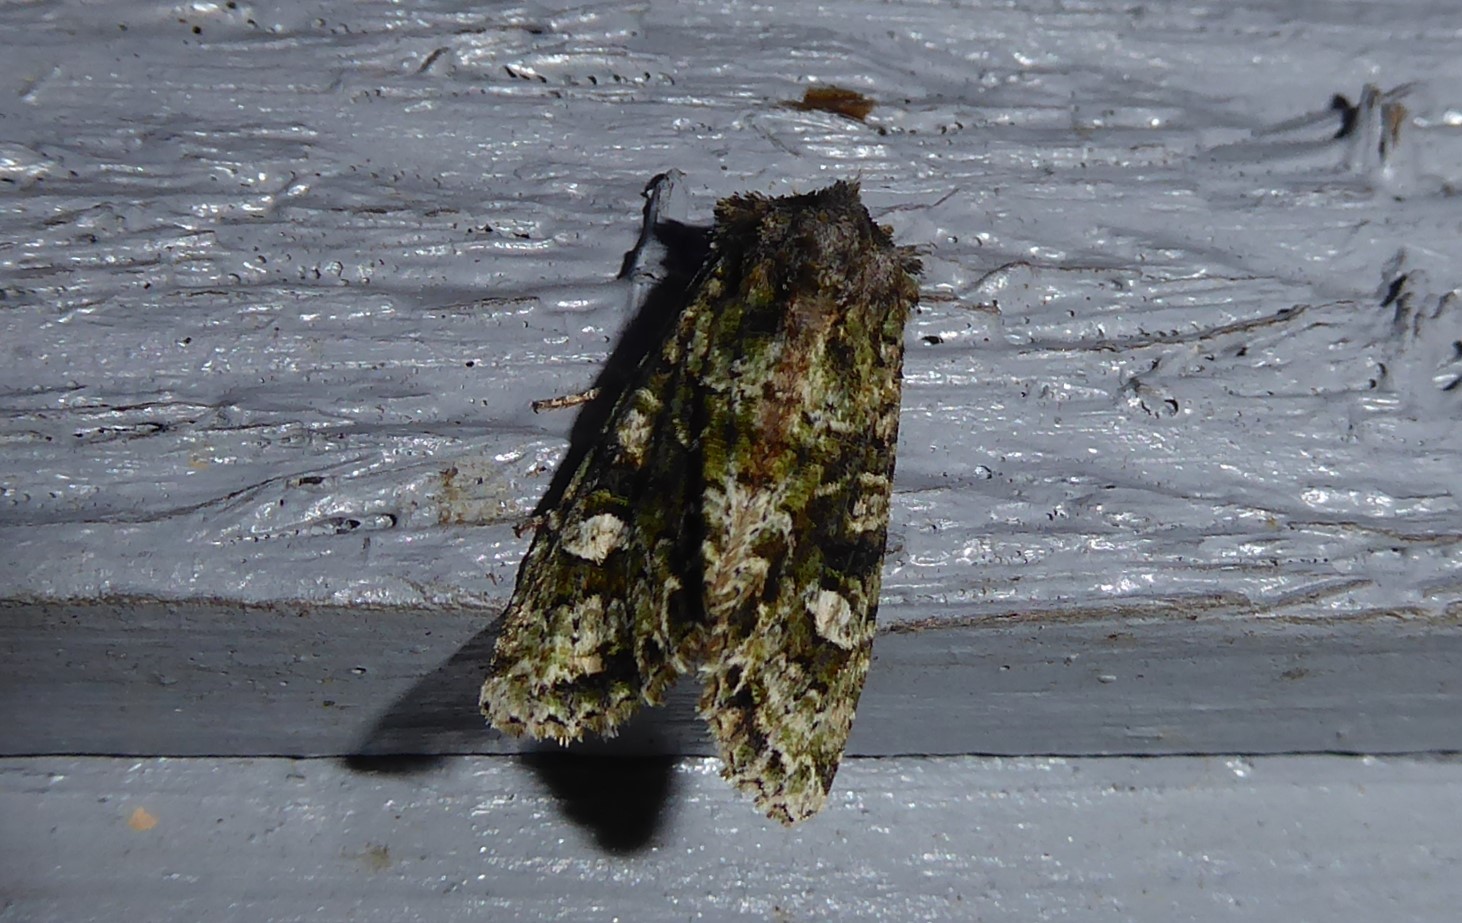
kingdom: Animalia
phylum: Arthropoda
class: Insecta
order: Lepidoptera
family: Noctuidae
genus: Ichneutica
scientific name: Ichneutica
